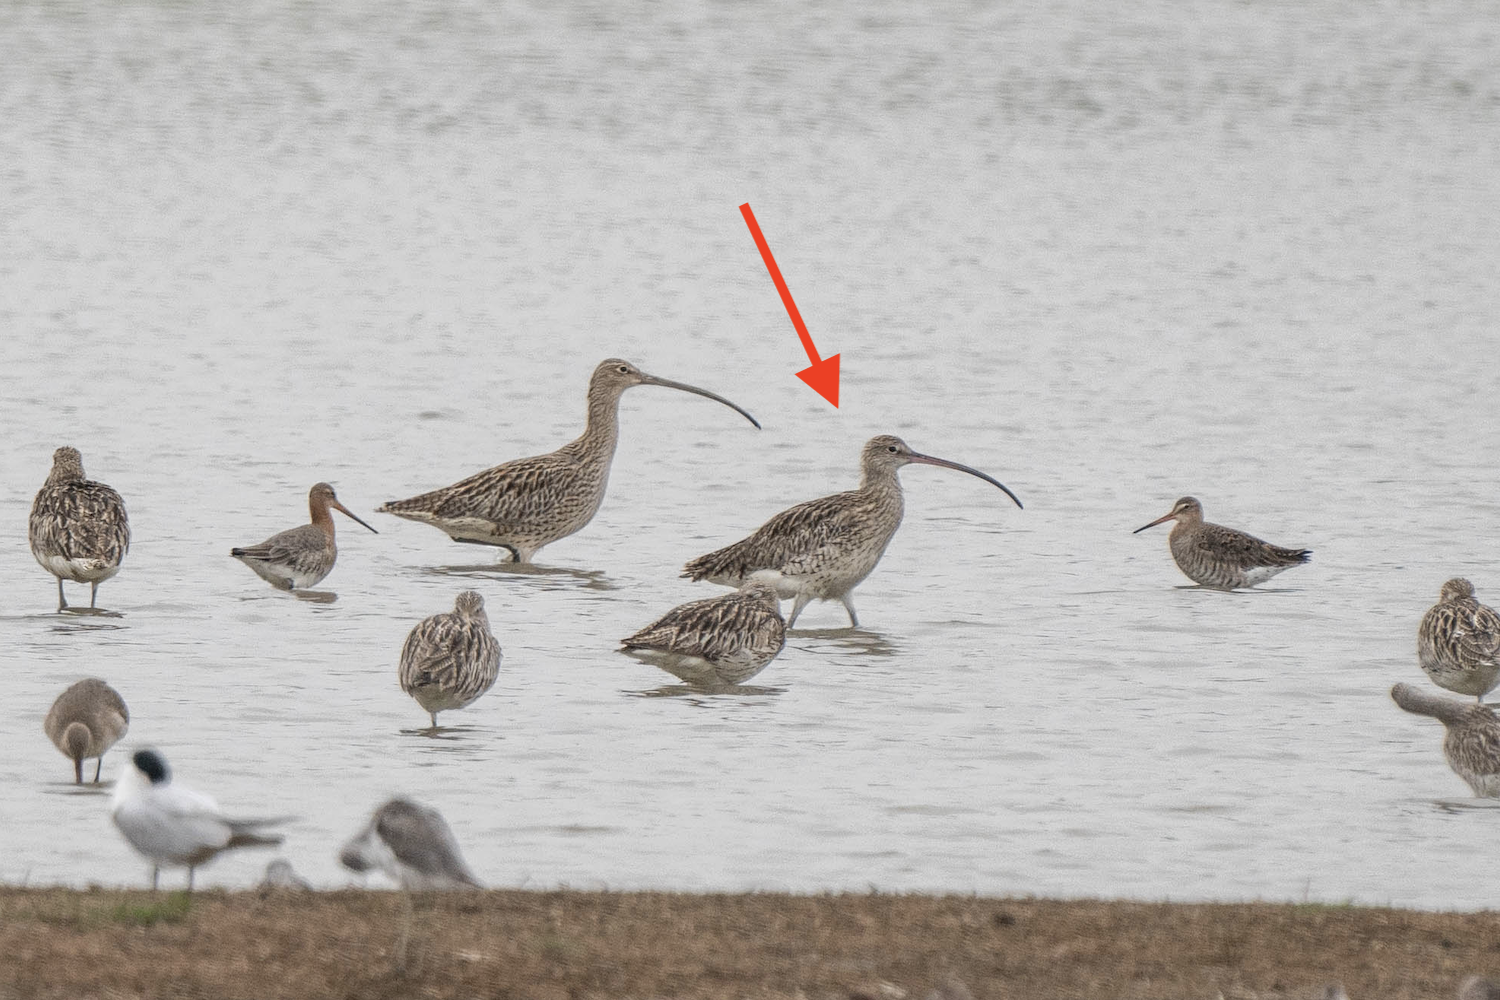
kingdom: Animalia
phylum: Chordata
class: Aves
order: Charadriiformes
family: Scolopacidae
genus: Numenius
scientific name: Numenius arquata
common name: Eurasian curlew
